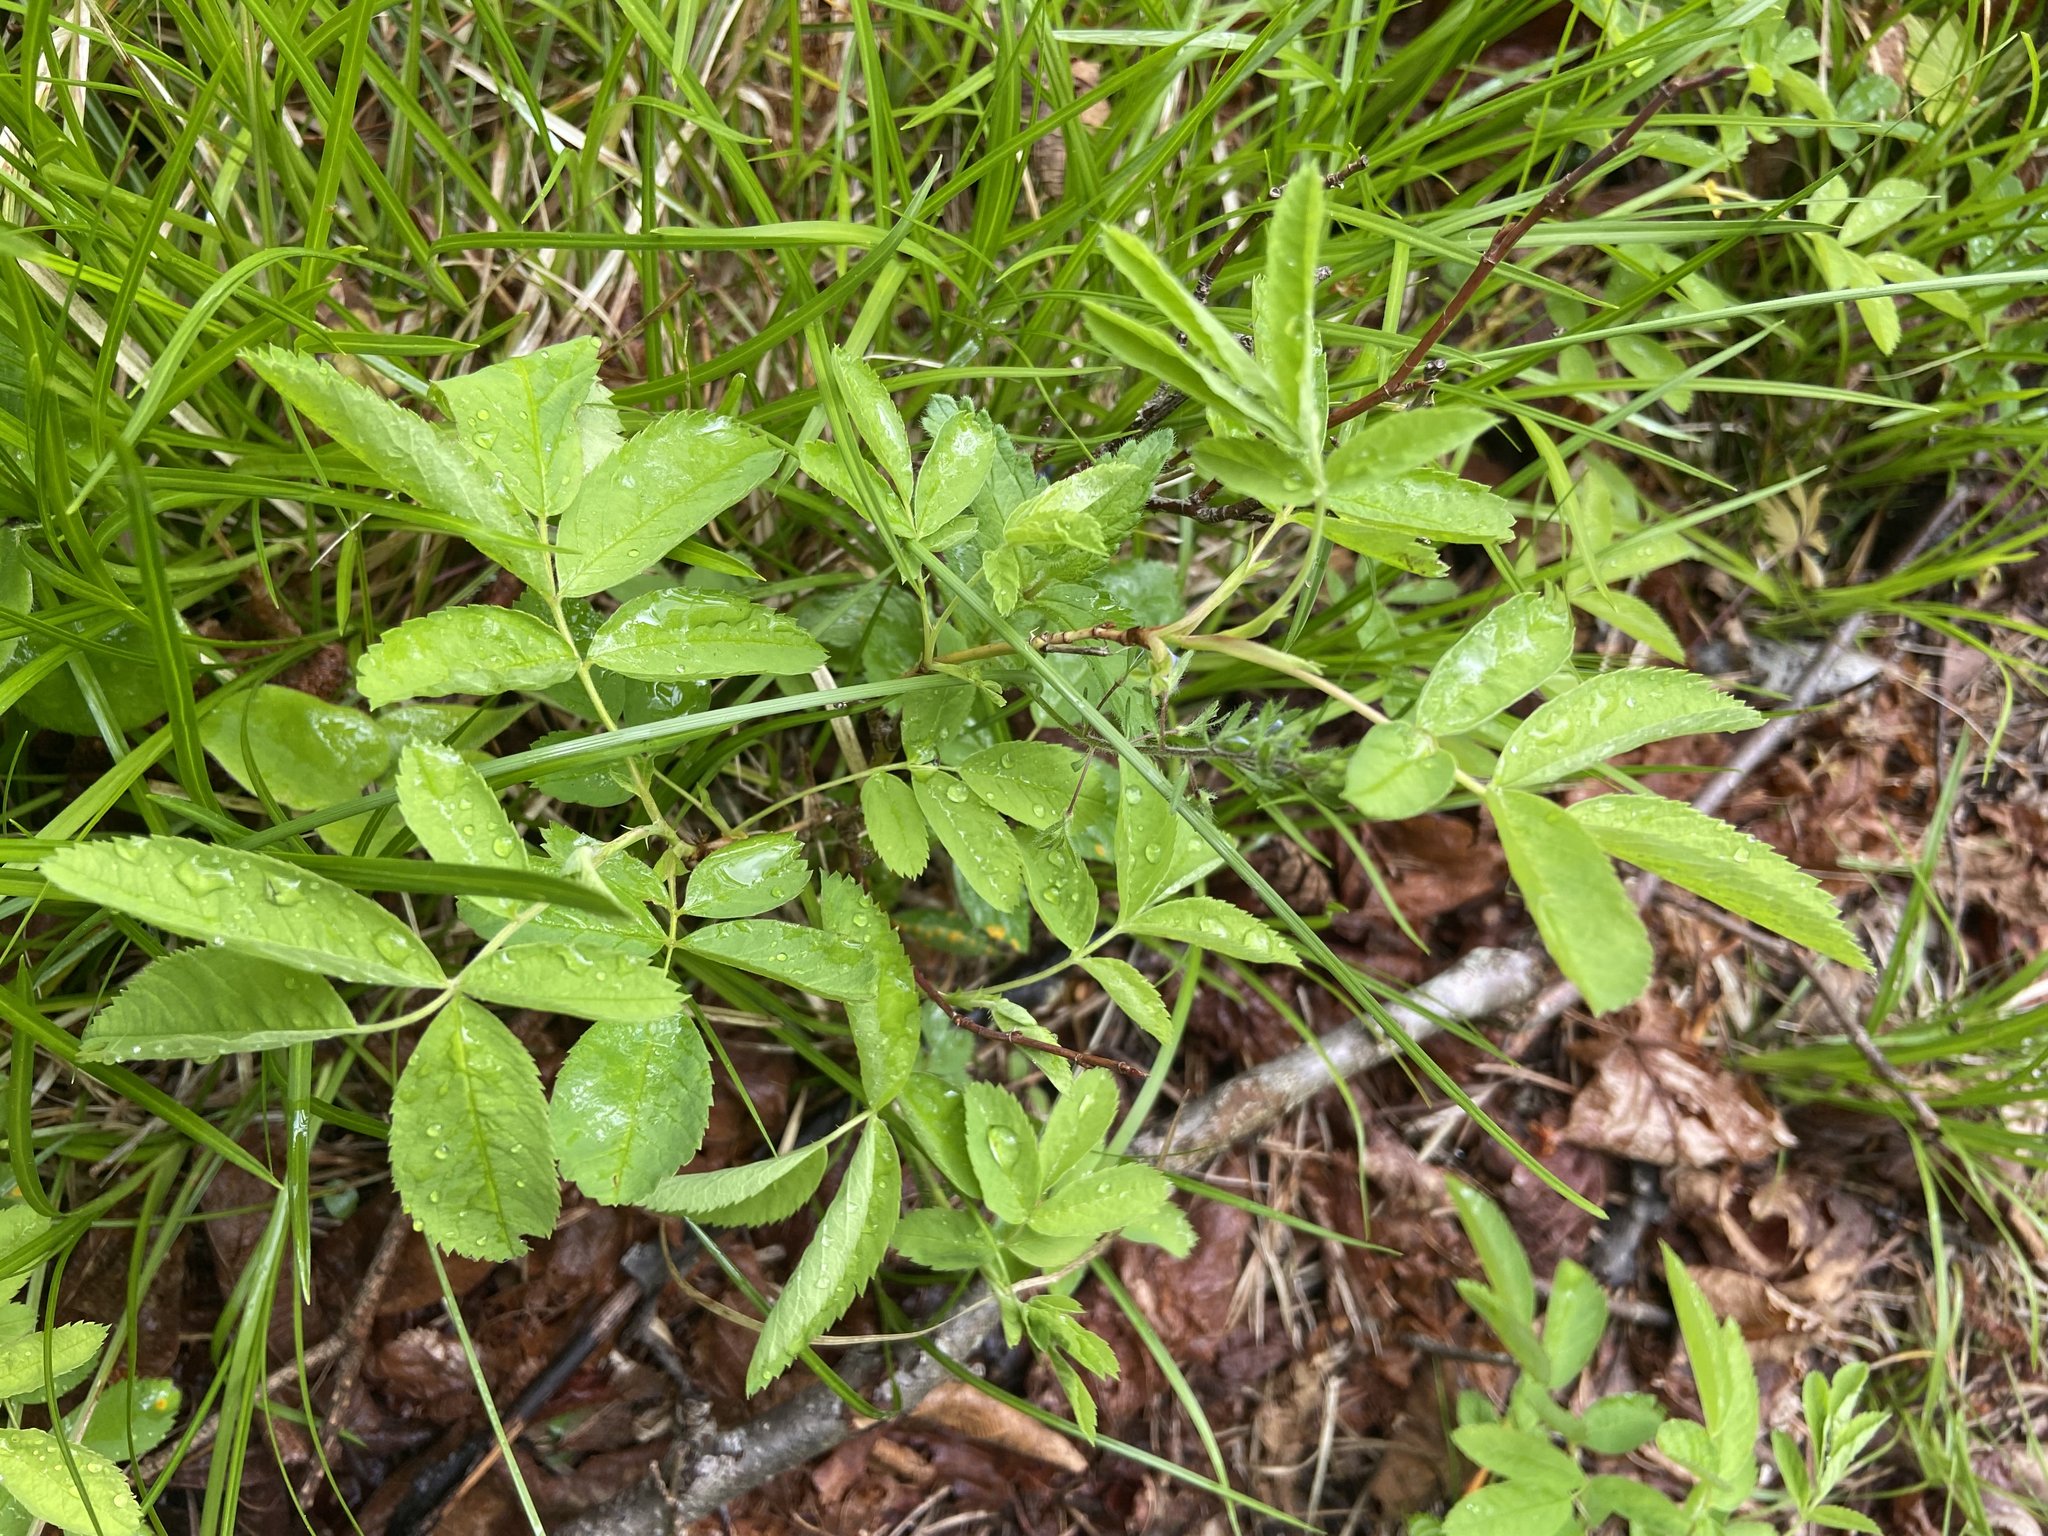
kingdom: Plantae
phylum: Tracheophyta
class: Magnoliopsida
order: Rosales
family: Rosaceae
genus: Rosa
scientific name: Rosa glabrifolia
